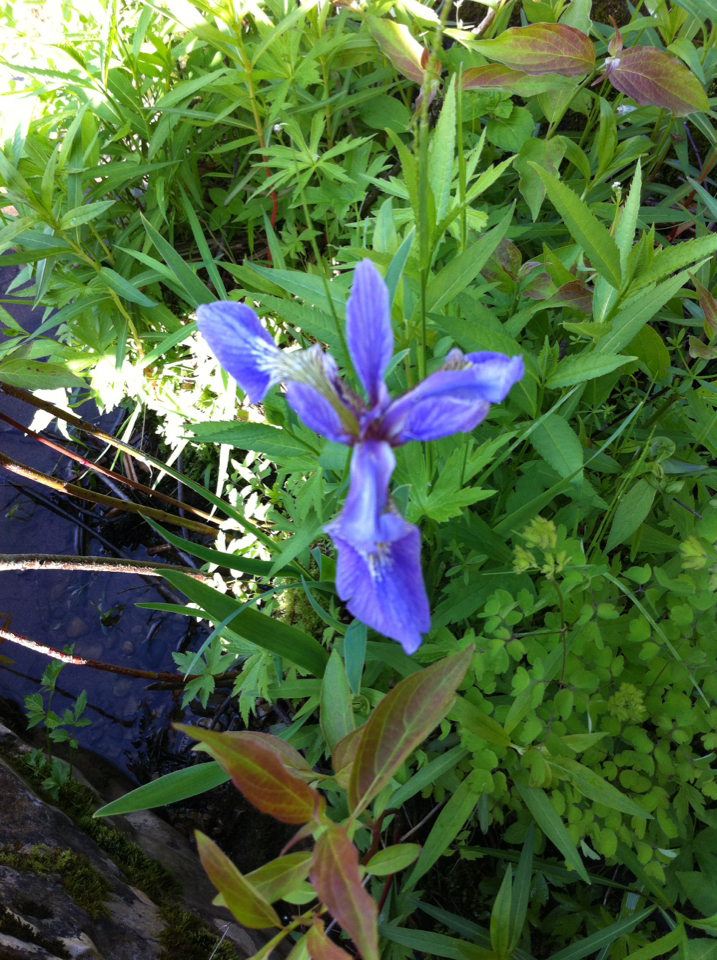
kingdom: Plantae
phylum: Tracheophyta
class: Liliopsida
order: Asparagales
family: Iridaceae
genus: Iris
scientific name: Iris versicolor
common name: Purple iris
